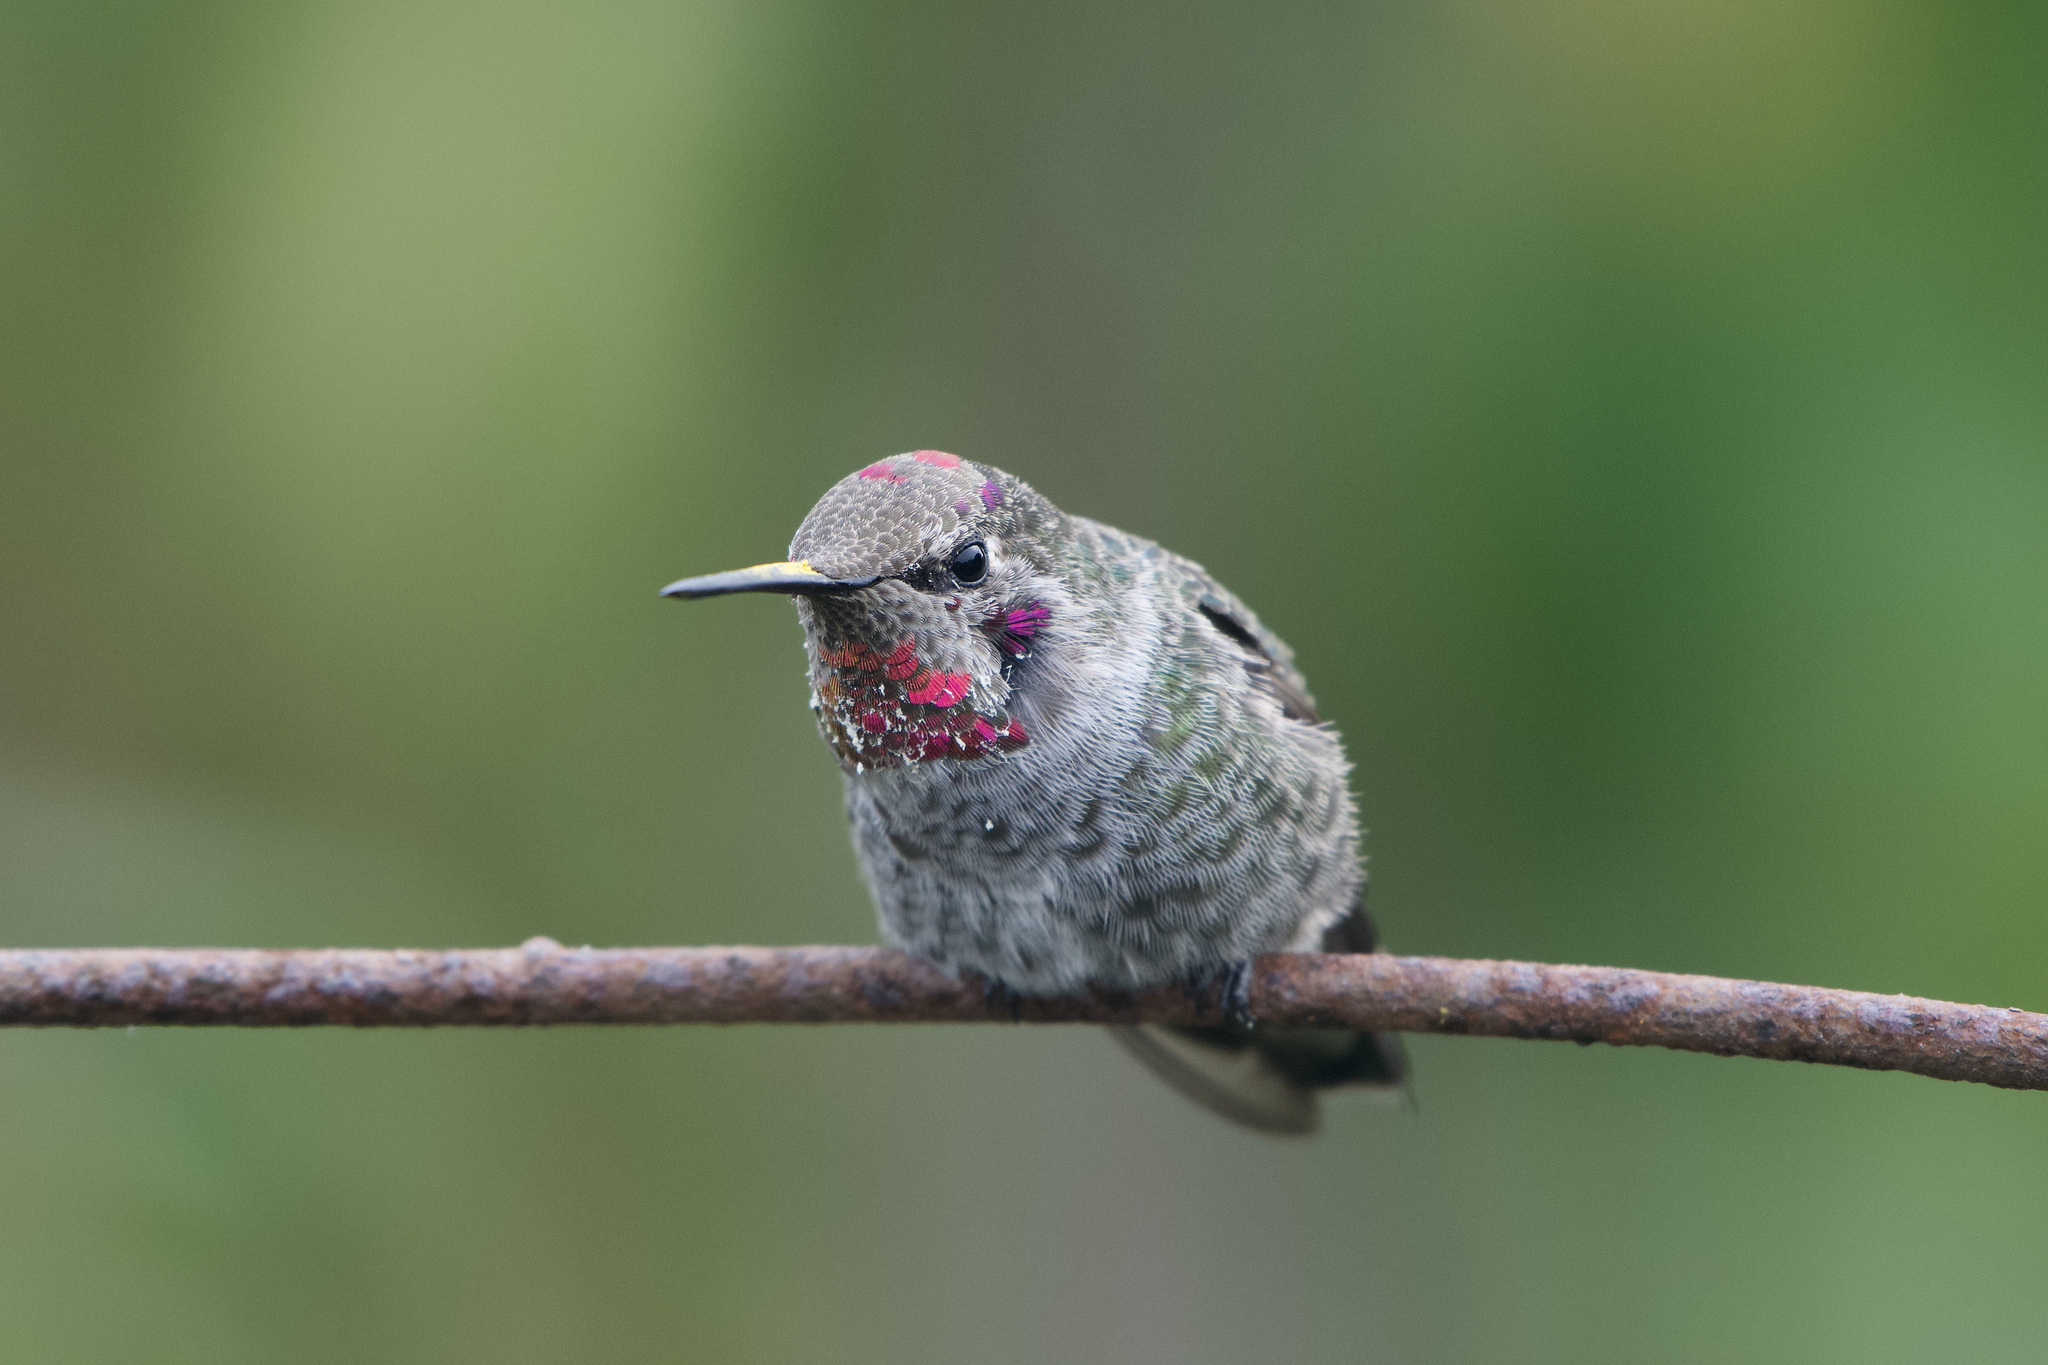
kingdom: Animalia
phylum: Chordata
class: Aves
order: Apodiformes
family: Trochilidae
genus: Calypte
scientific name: Calypte anna
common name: Anna's hummingbird
